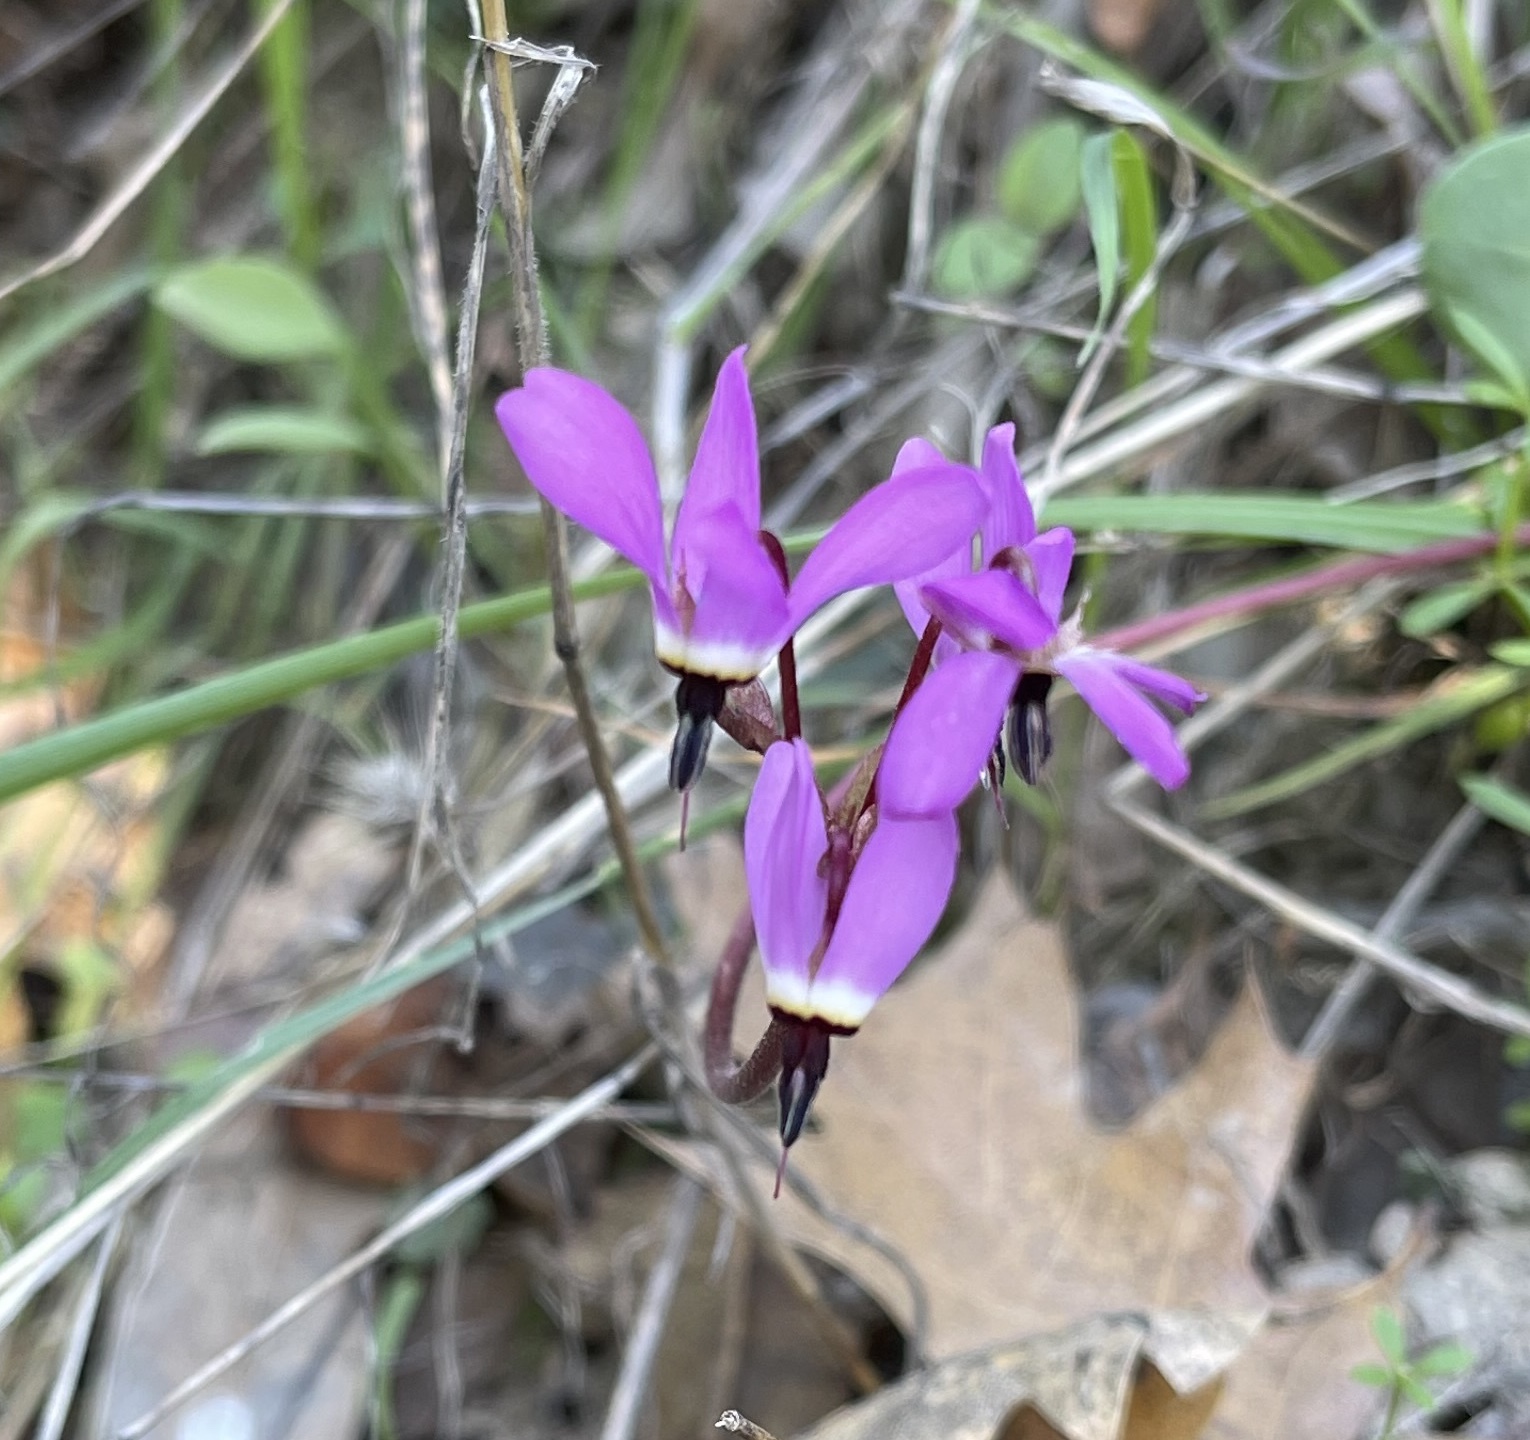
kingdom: Plantae
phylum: Tracheophyta
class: Magnoliopsida
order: Ericales
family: Primulaceae
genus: Dodecatheon
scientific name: Dodecatheon hendersonii
